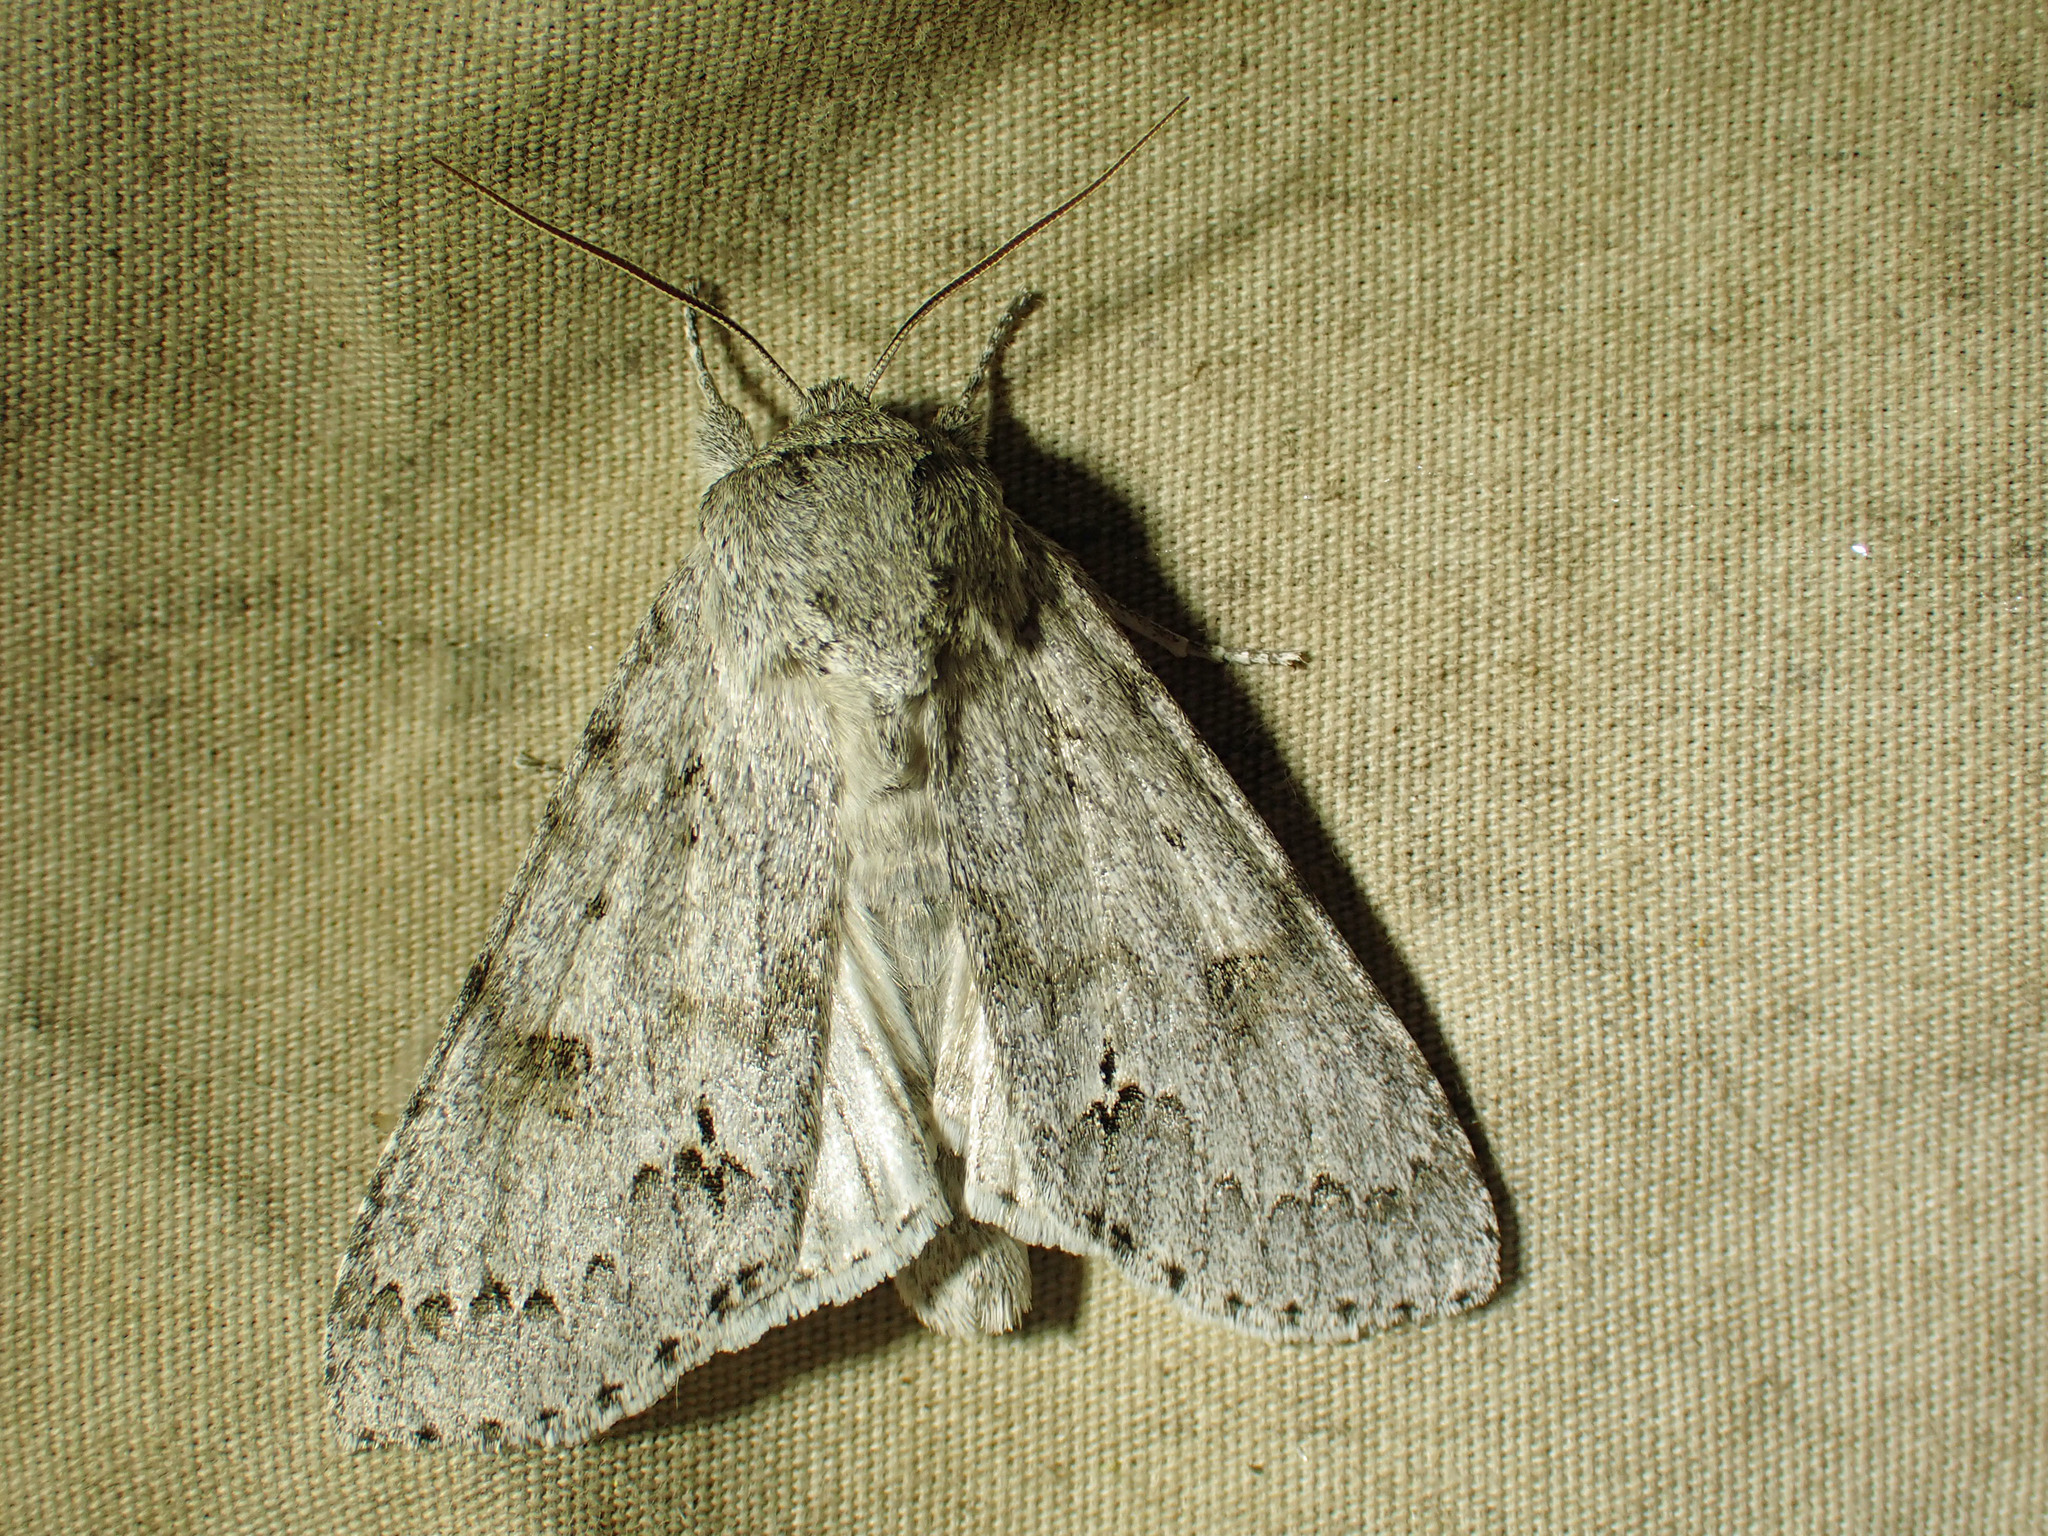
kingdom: Animalia
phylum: Arthropoda
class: Insecta
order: Lepidoptera
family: Noctuidae
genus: Acronicta
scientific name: Acronicta insita
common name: Large gray dagger
